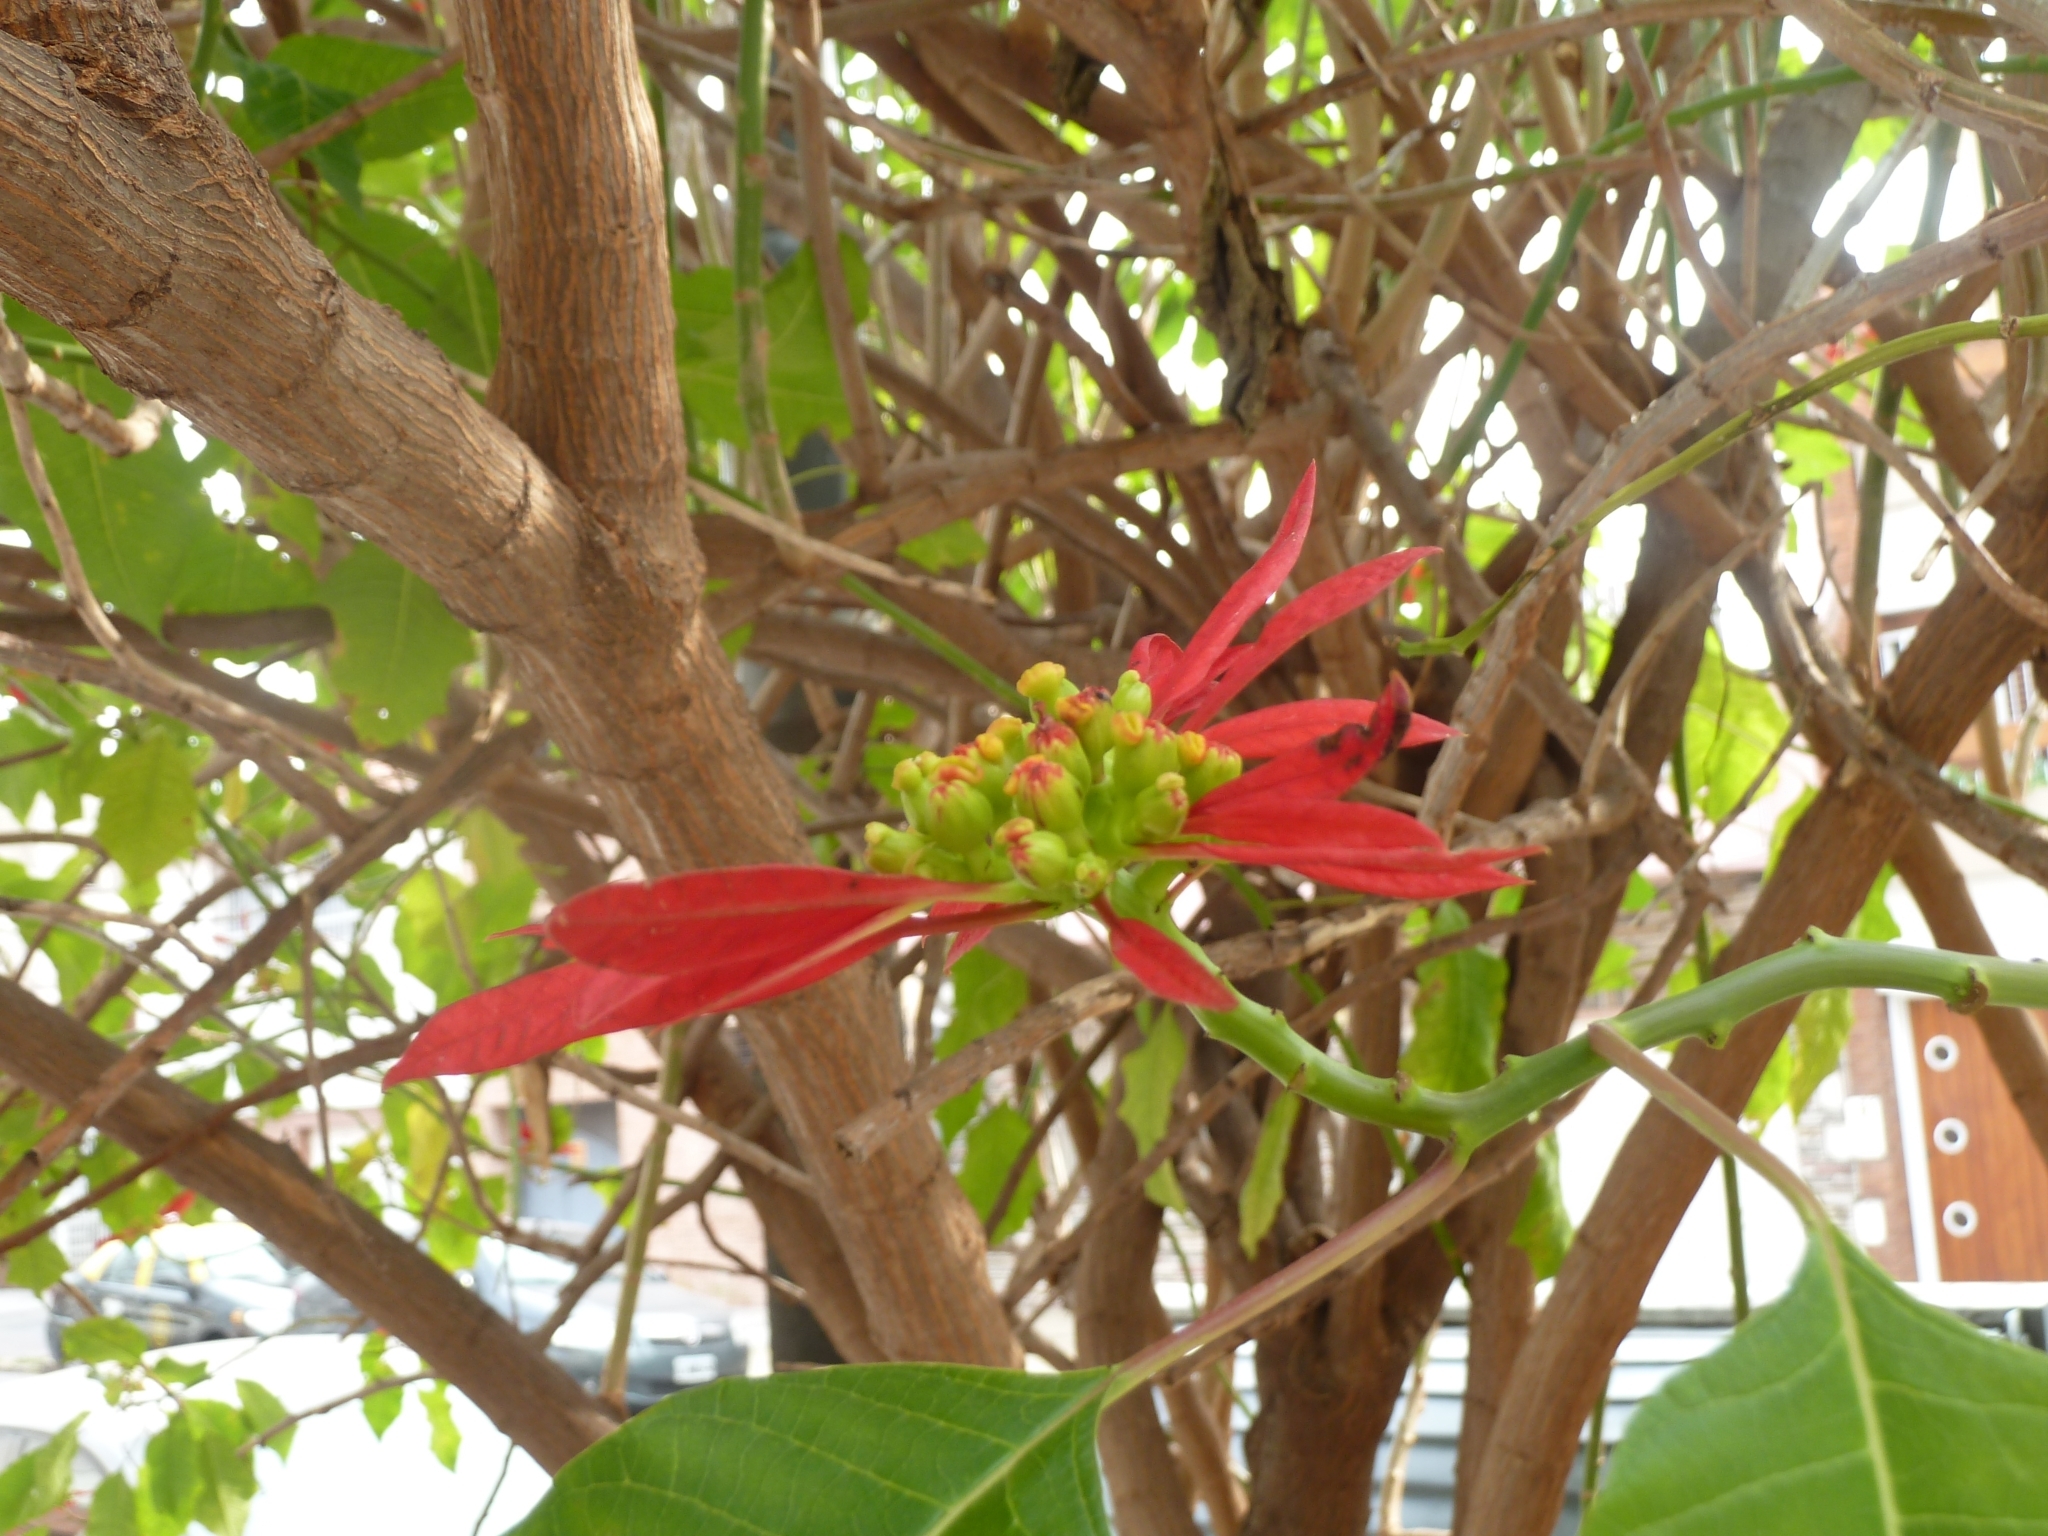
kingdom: Plantae
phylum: Tracheophyta
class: Magnoliopsida
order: Malpighiales
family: Euphorbiaceae
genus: Euphorbia
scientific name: Euphorbia pulcherrima
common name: Christmas-flower
